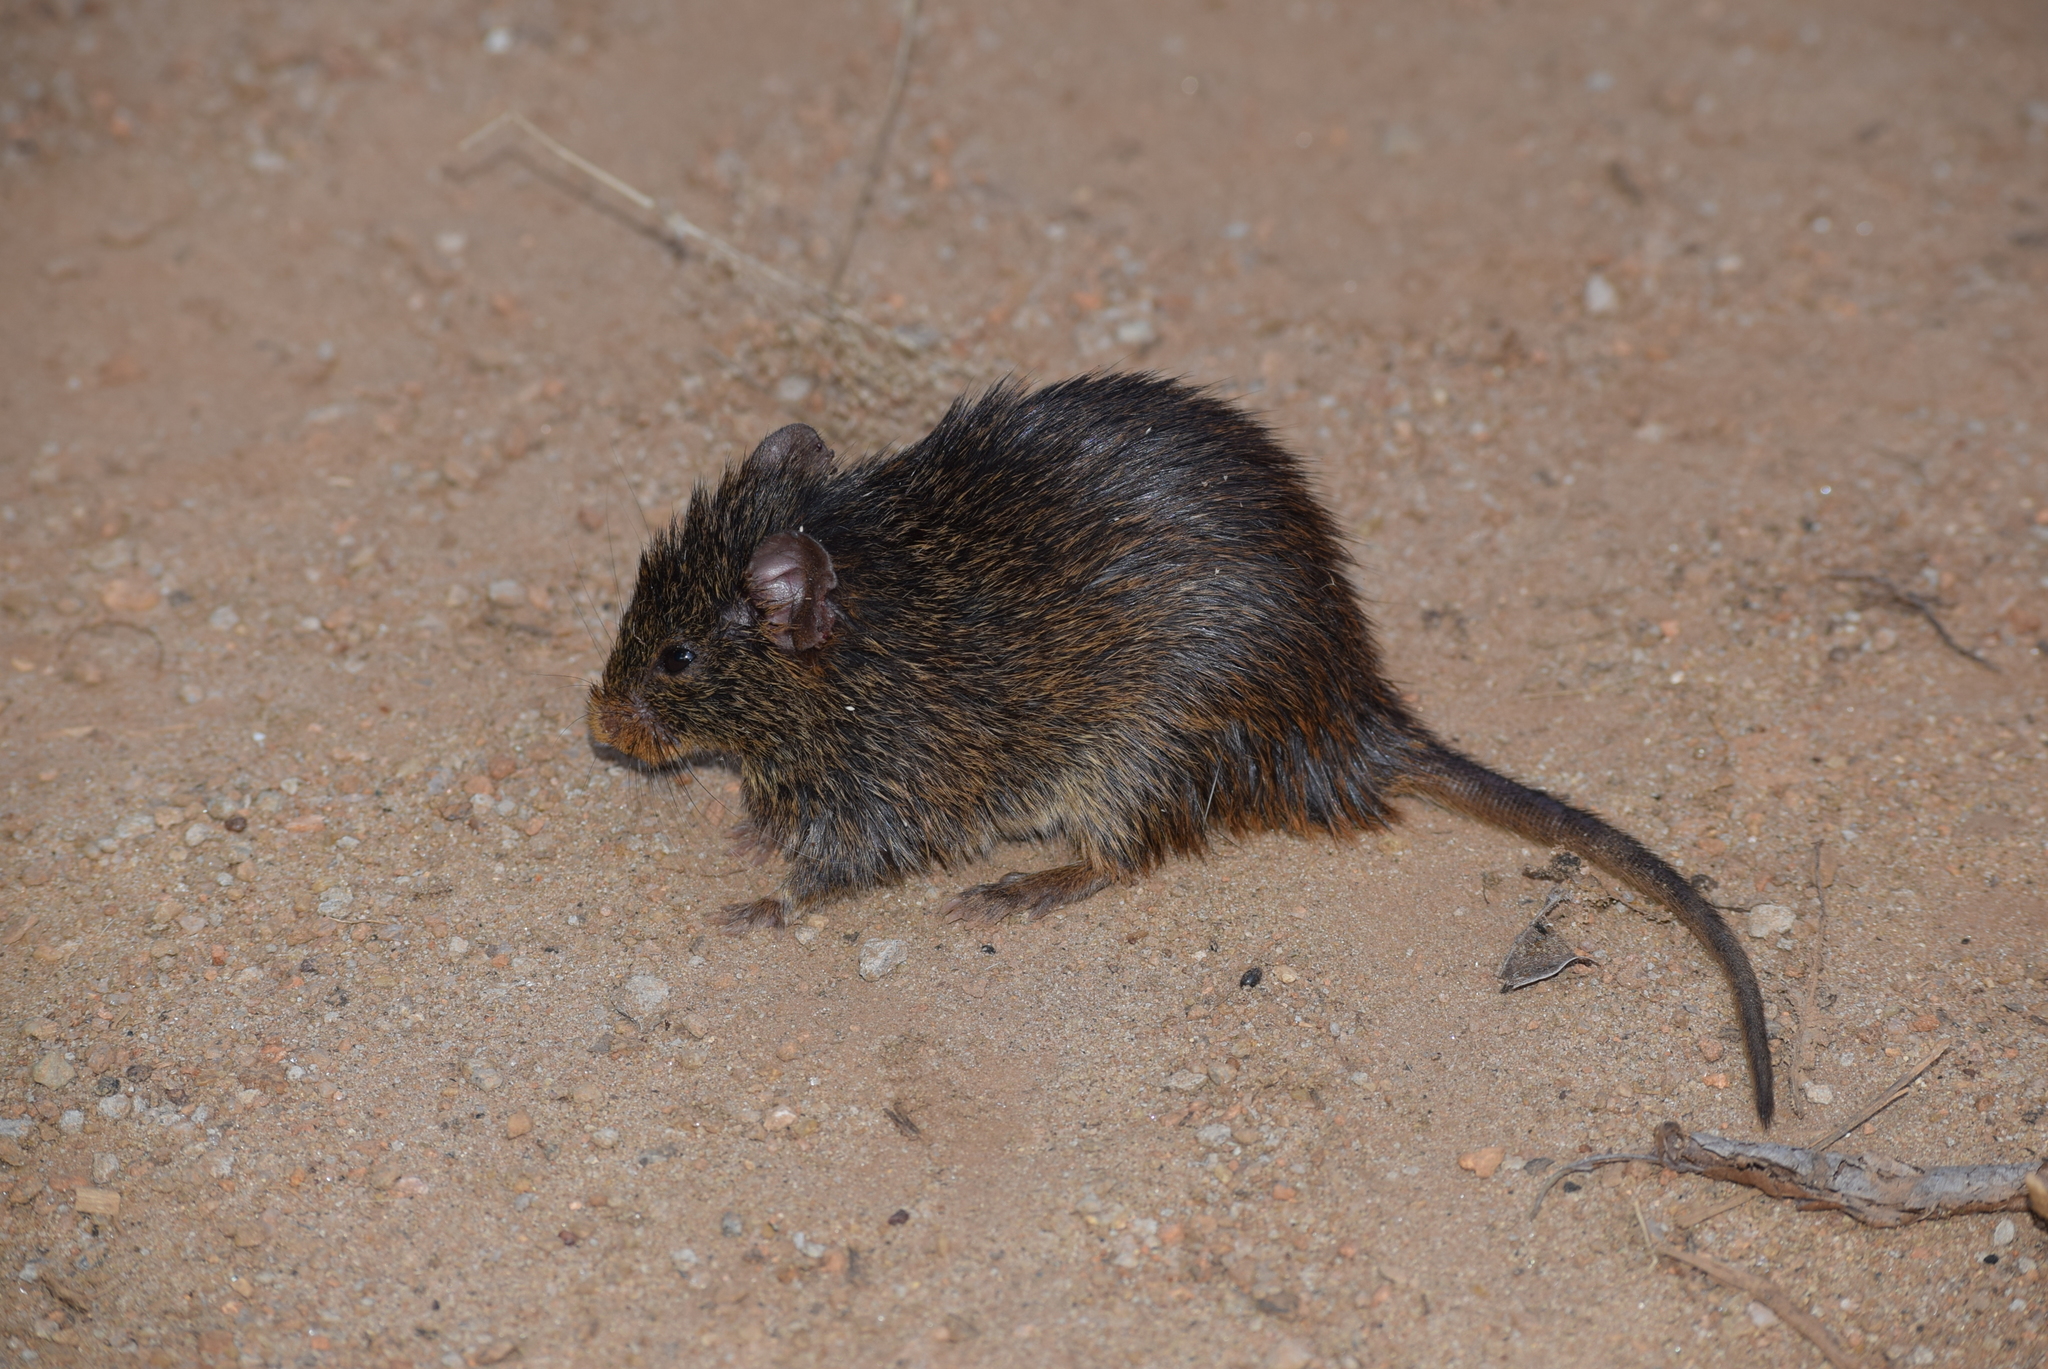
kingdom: Animalia
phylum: Chordata
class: Mammalia
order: Rodentia
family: Muridae
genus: Golunda
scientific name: Golunda ellioti
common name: Indian bush rat
